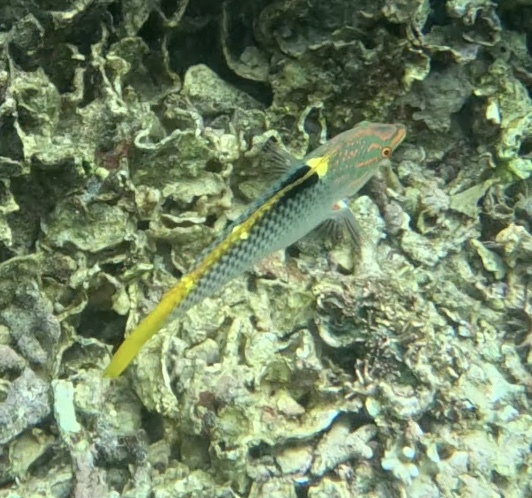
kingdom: Animalia
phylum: Chordata
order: Perciformes
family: Labridae
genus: Halichoeres
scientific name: Halichoeres hortulanus
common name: Checkerboard wrasse
